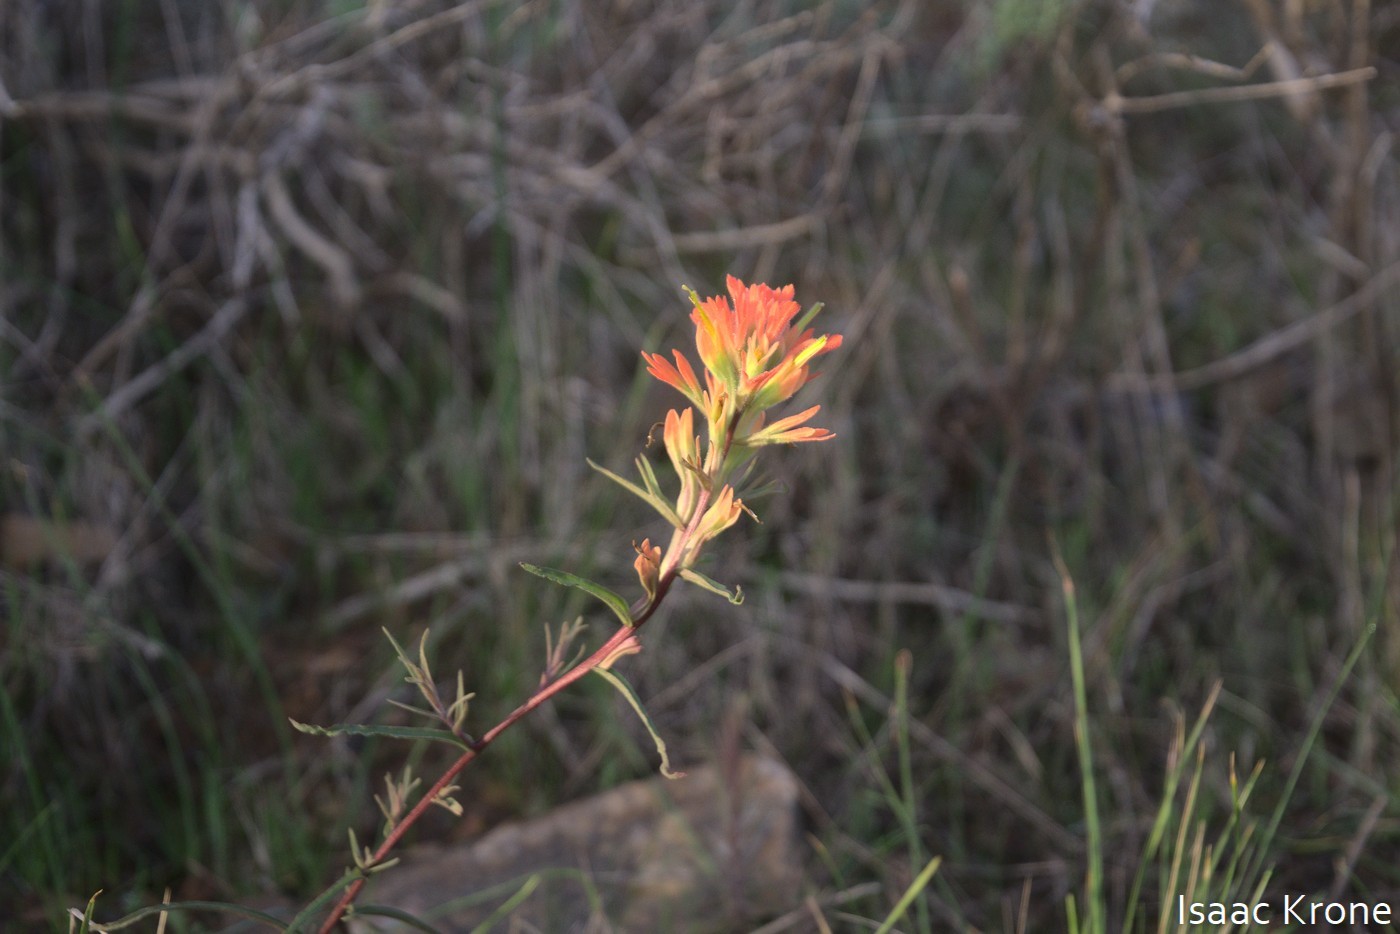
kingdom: Plantae
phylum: Tracheophyta
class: Magnoliopsida
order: Lamiales
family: Orobanchaceae
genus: Castilleja
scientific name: Castilleja affinis
